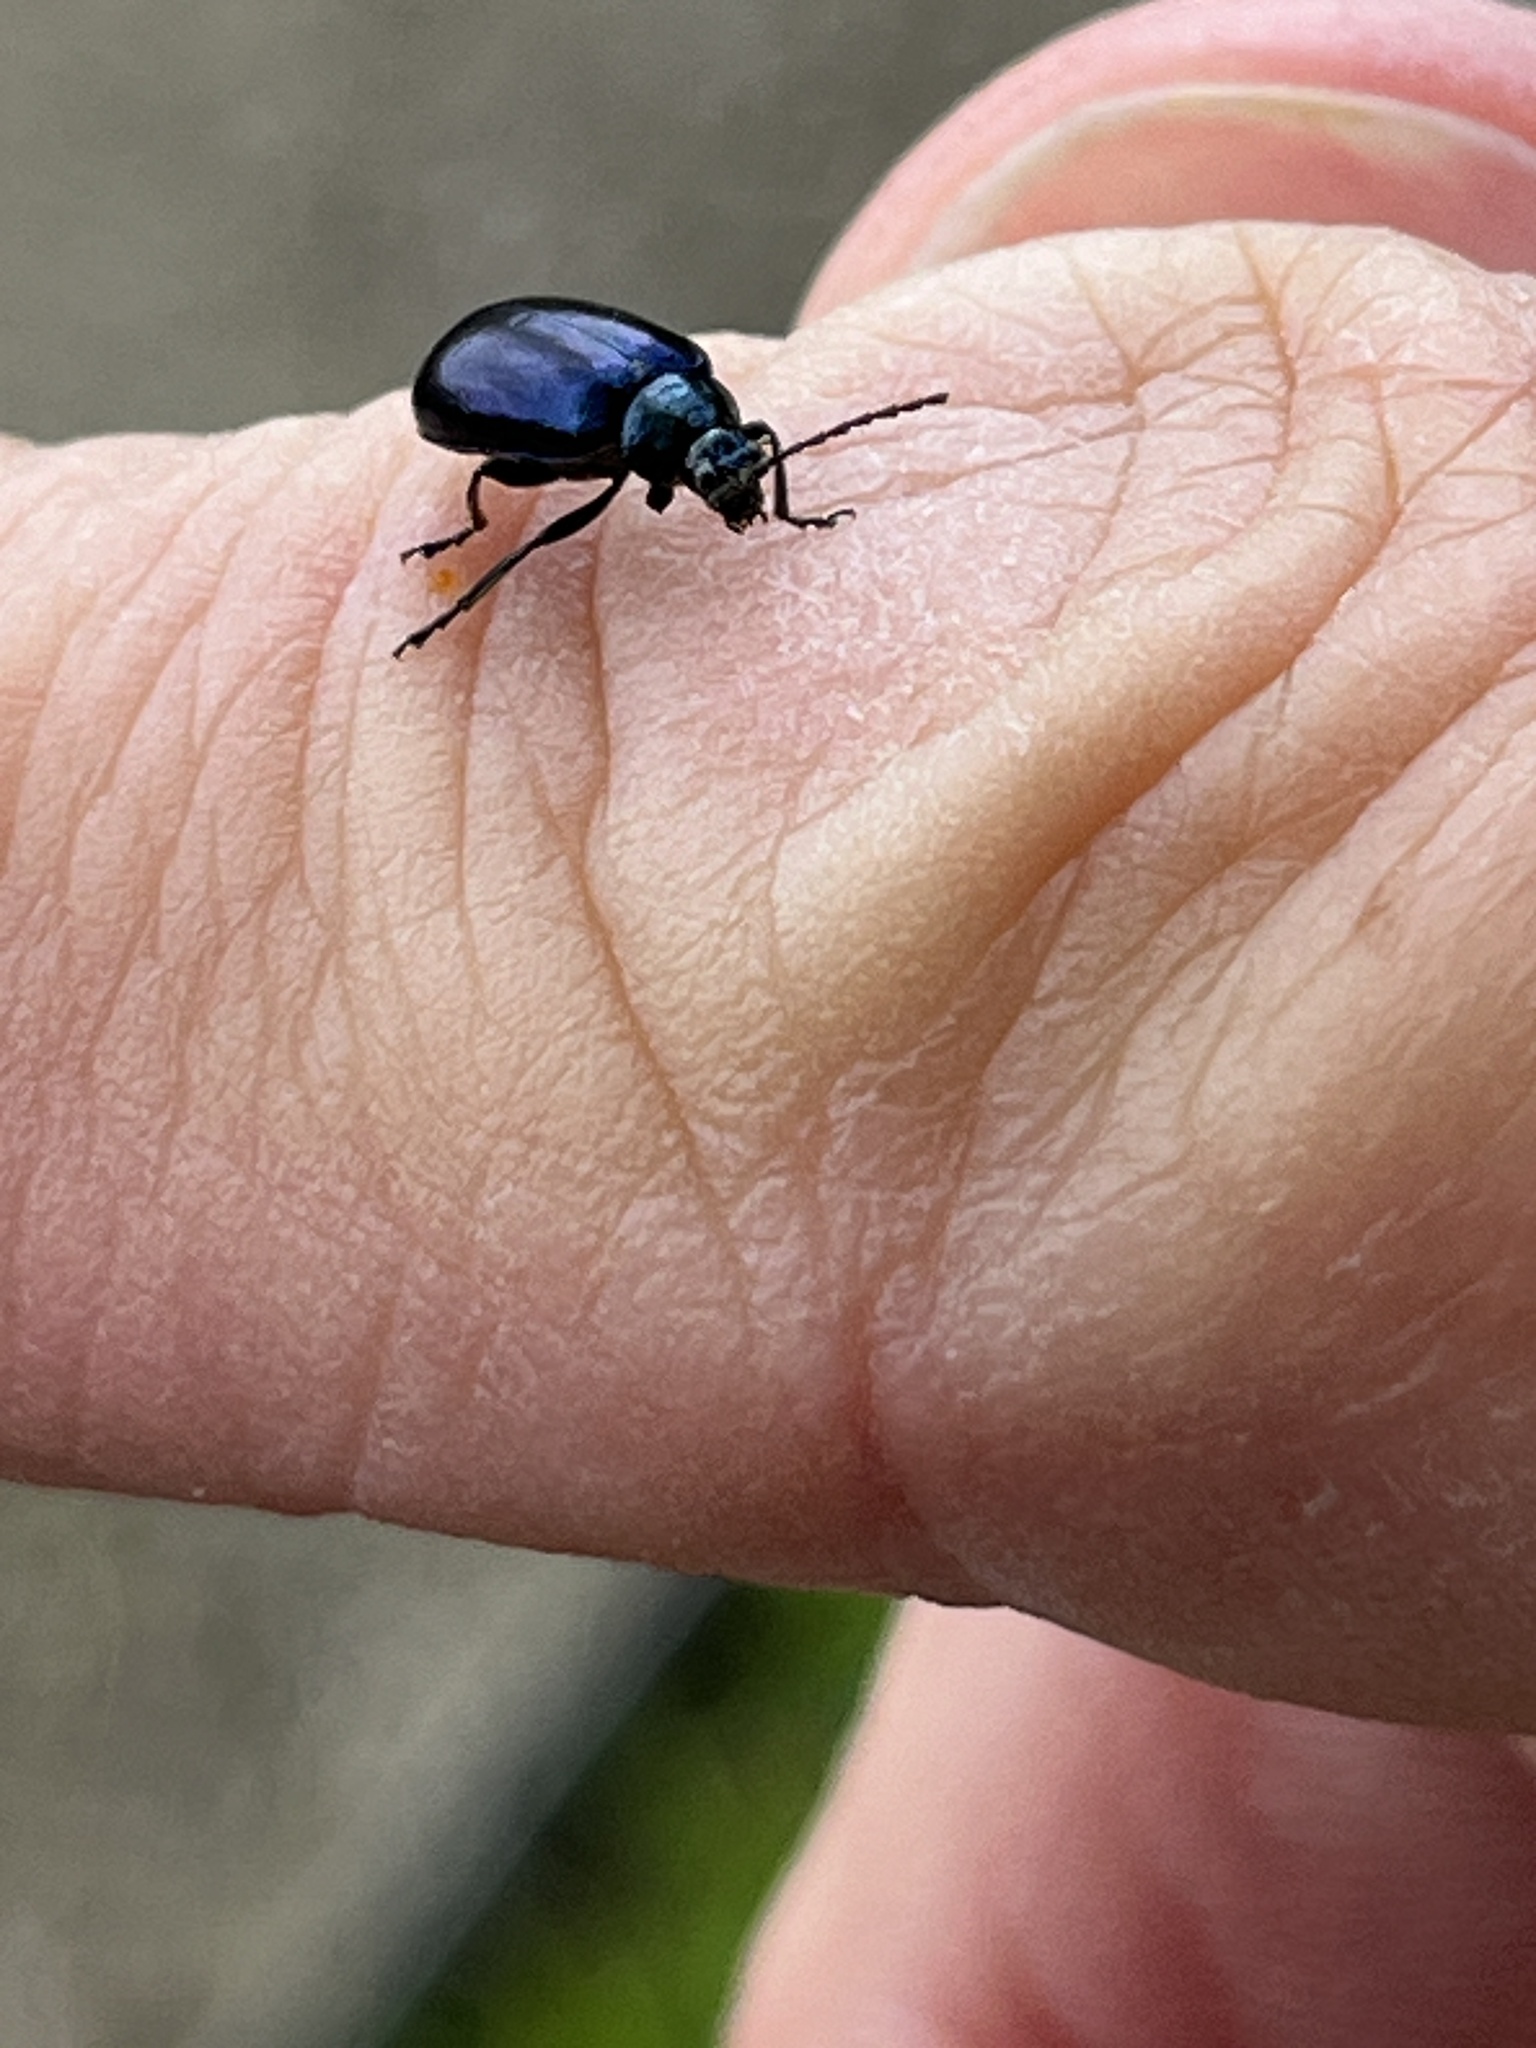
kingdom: Animalia
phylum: Arthropoda
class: Insecta
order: Coleoptera
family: Chrysomelidae
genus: Agelastica
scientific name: Agelastica alni
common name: Alder leaf beetle
